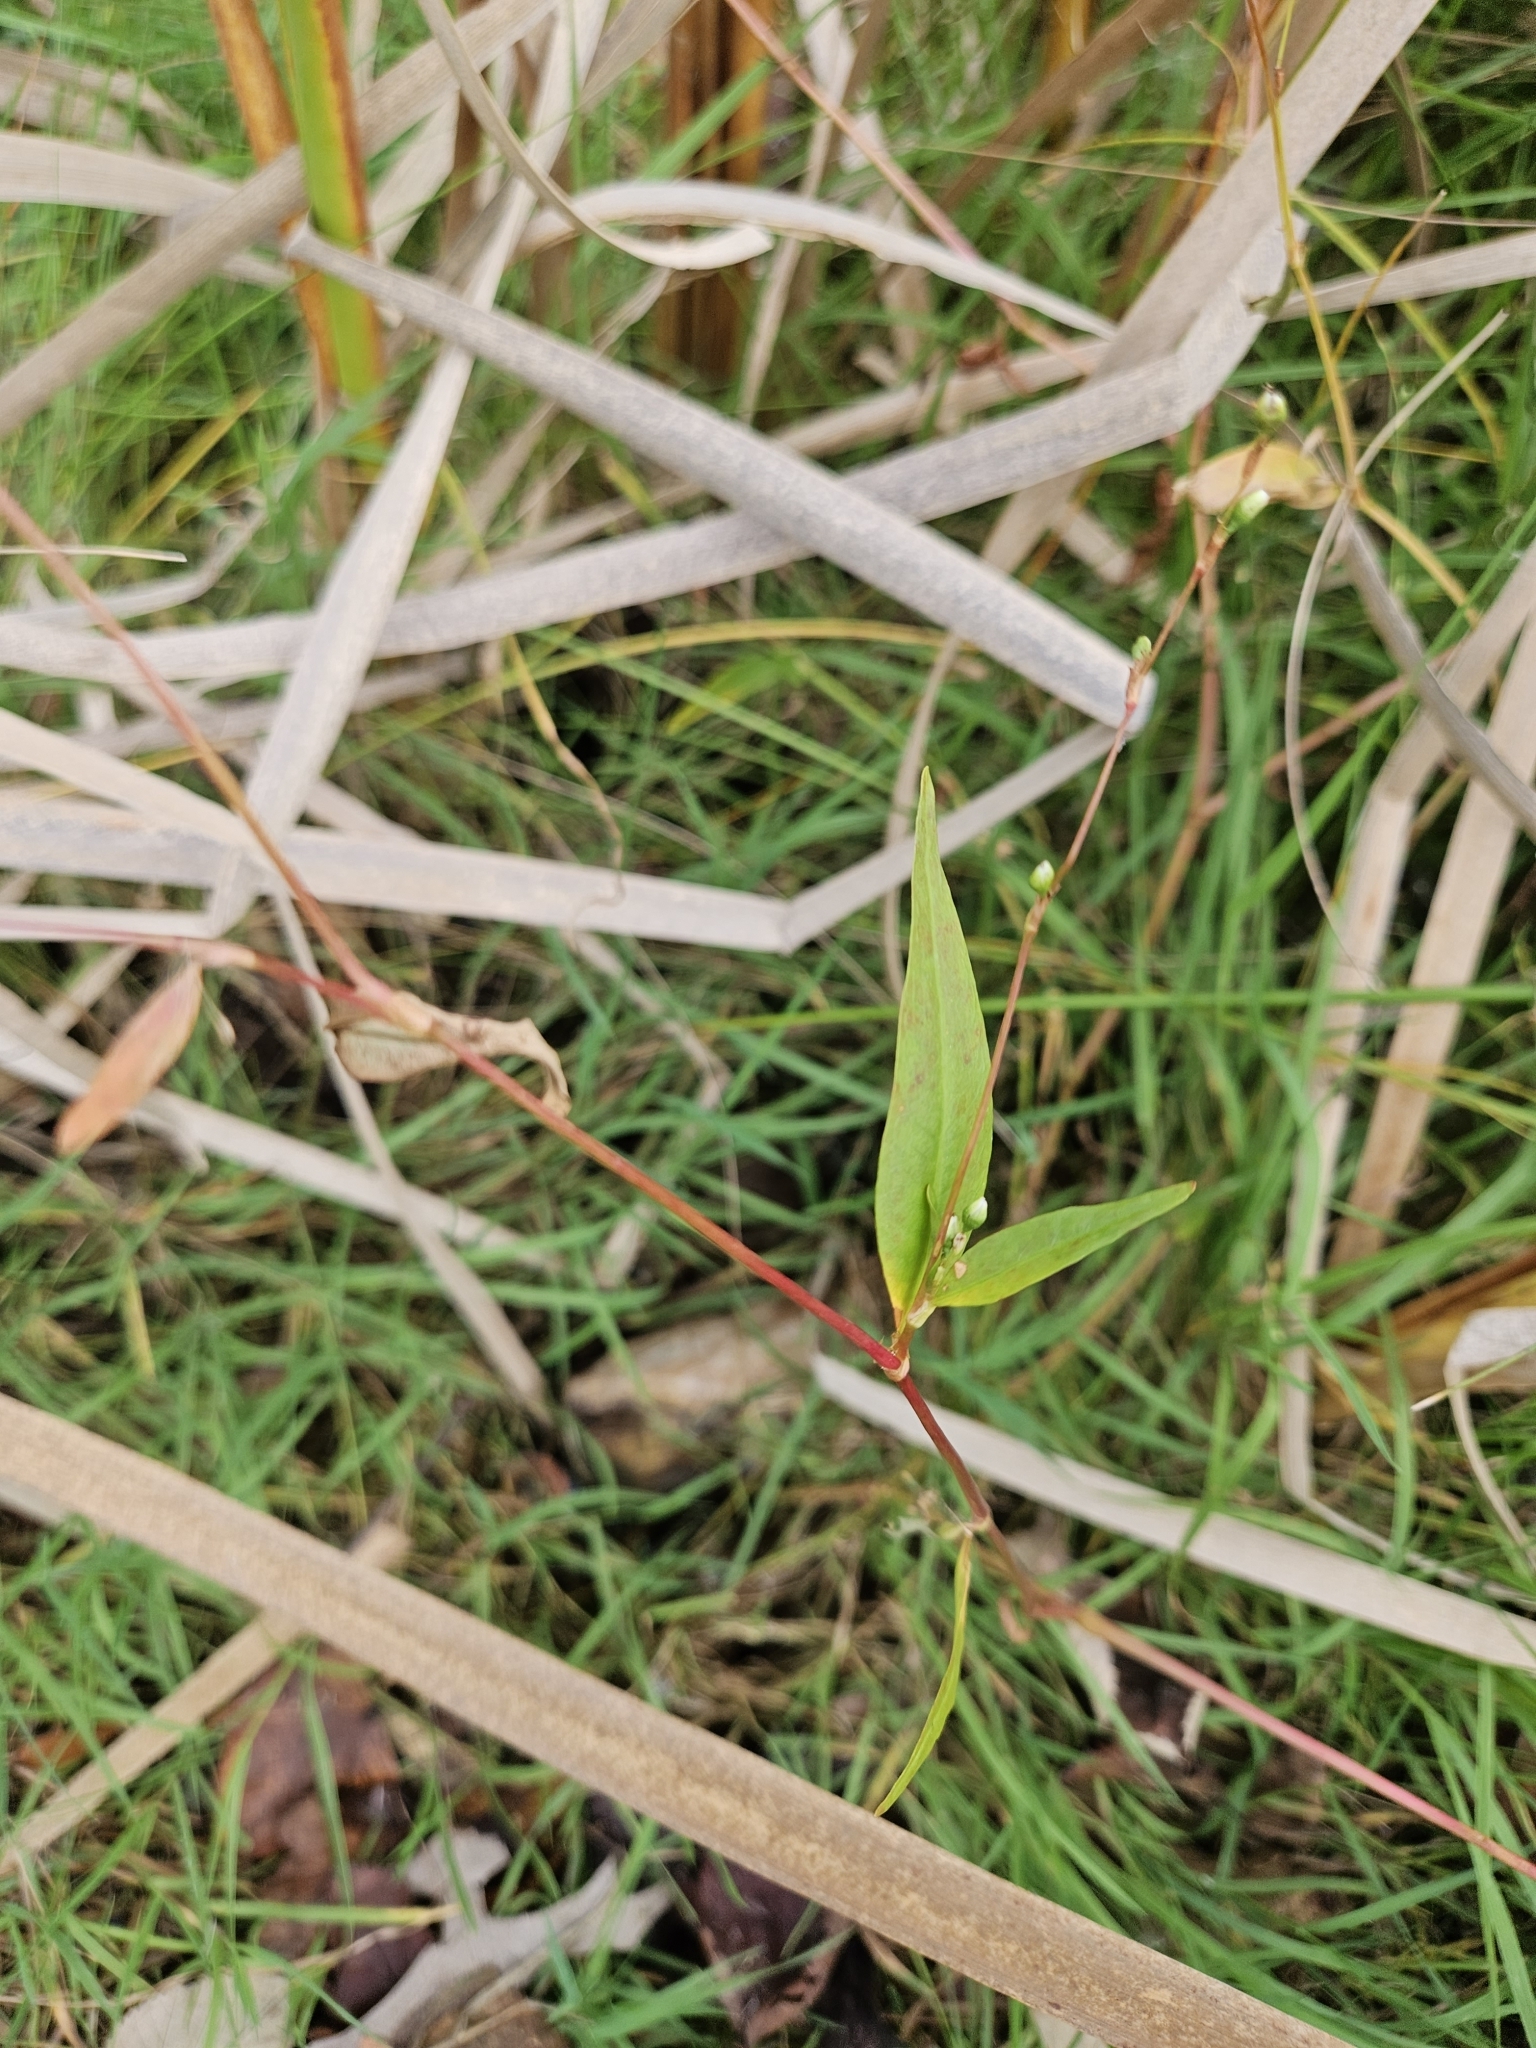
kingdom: Plantae
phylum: Tracheophyta
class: Magnoliopsida
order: Caryophyllales
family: Polygonaceae
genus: Persicaria
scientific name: Persicaria punctata
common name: Dotted smartweed
